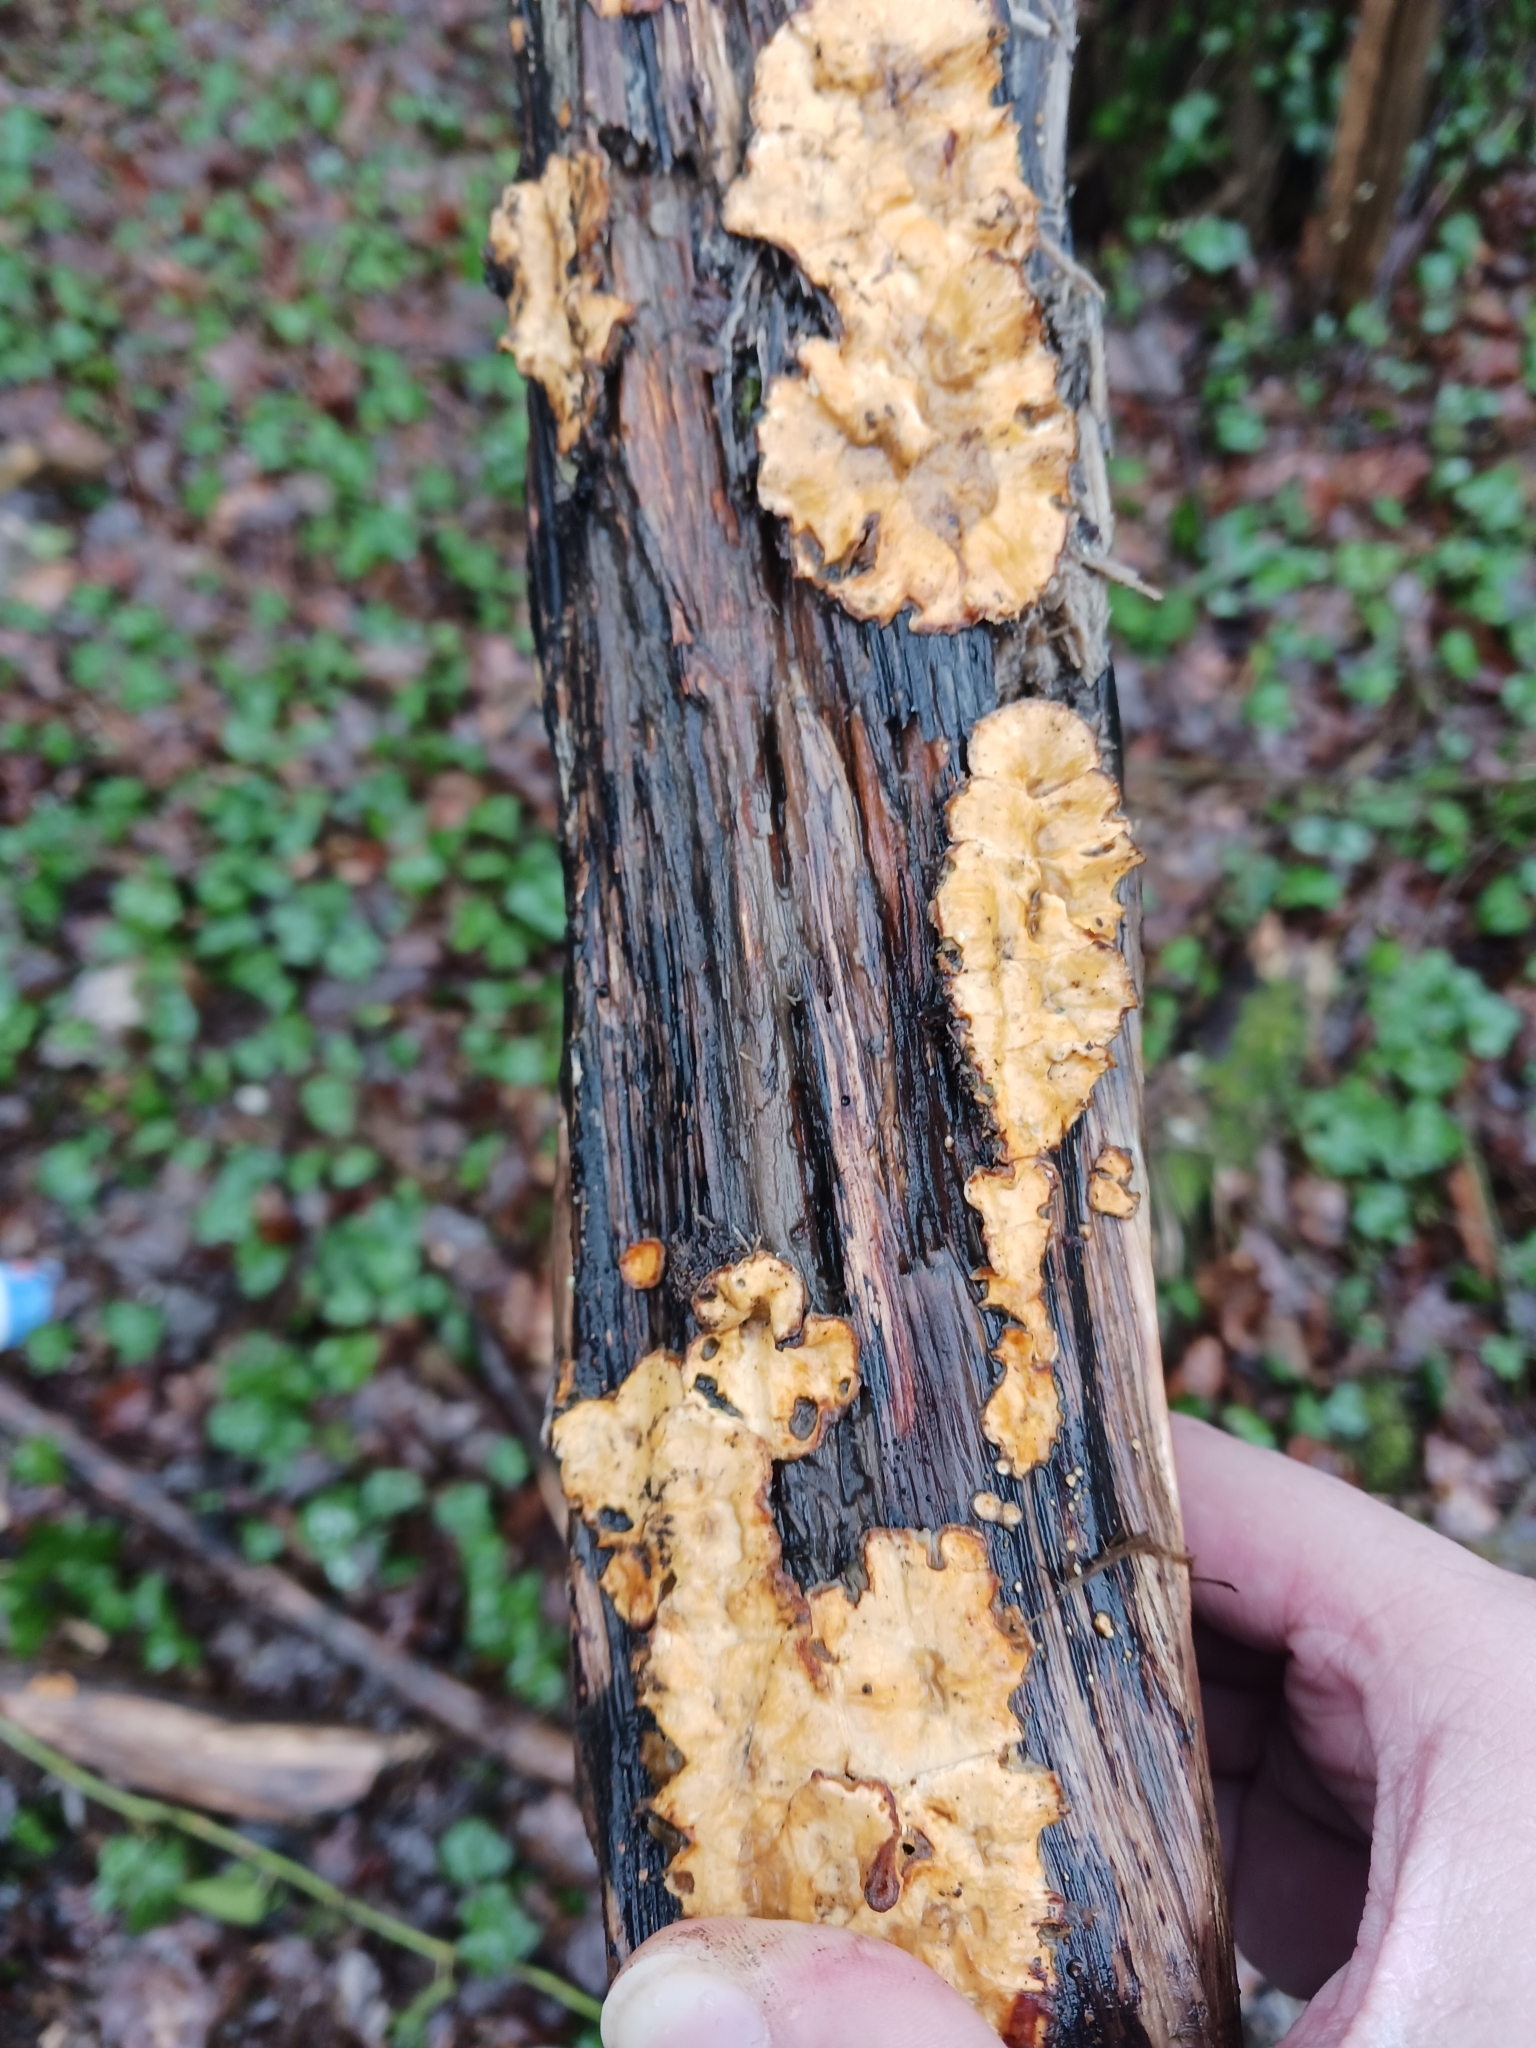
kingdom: Fungi
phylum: Basidiomycota
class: Agaricomycetes
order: Russulales
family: Stereaceae
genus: Stereum
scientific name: Stereum hirsutum
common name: Hairy curtain crust
